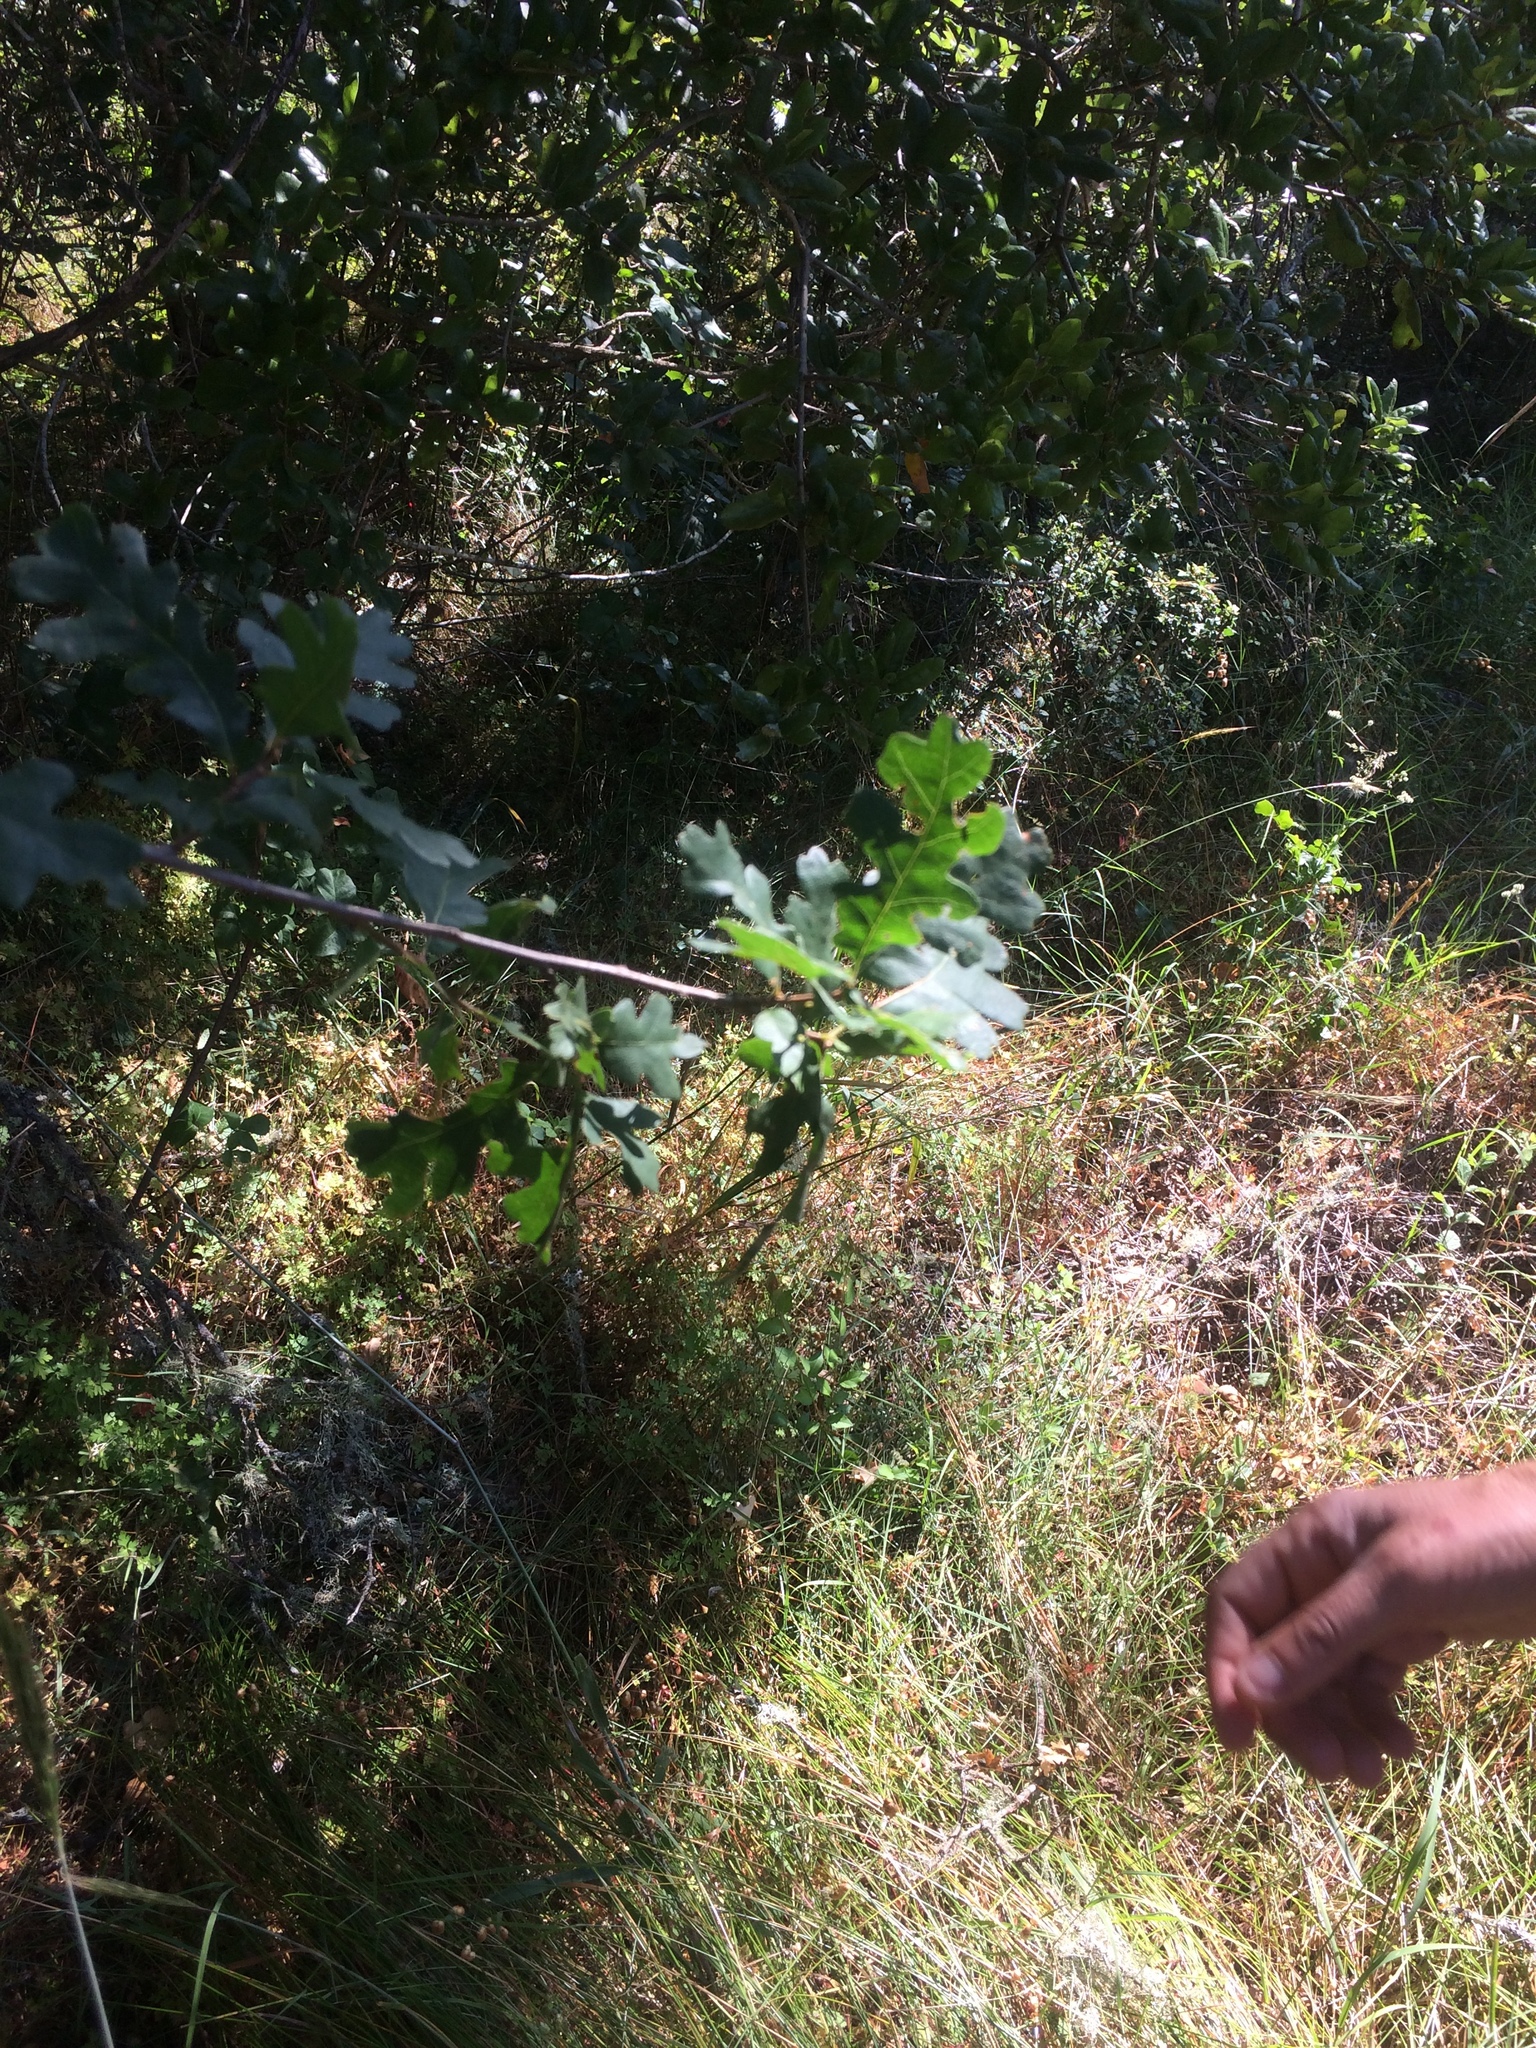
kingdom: Plantae
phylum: Tracheophyta
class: Magnoliopsida
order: Fagales
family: Fagaceae
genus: Quercus
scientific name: Quercus garryana
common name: Garry oak
